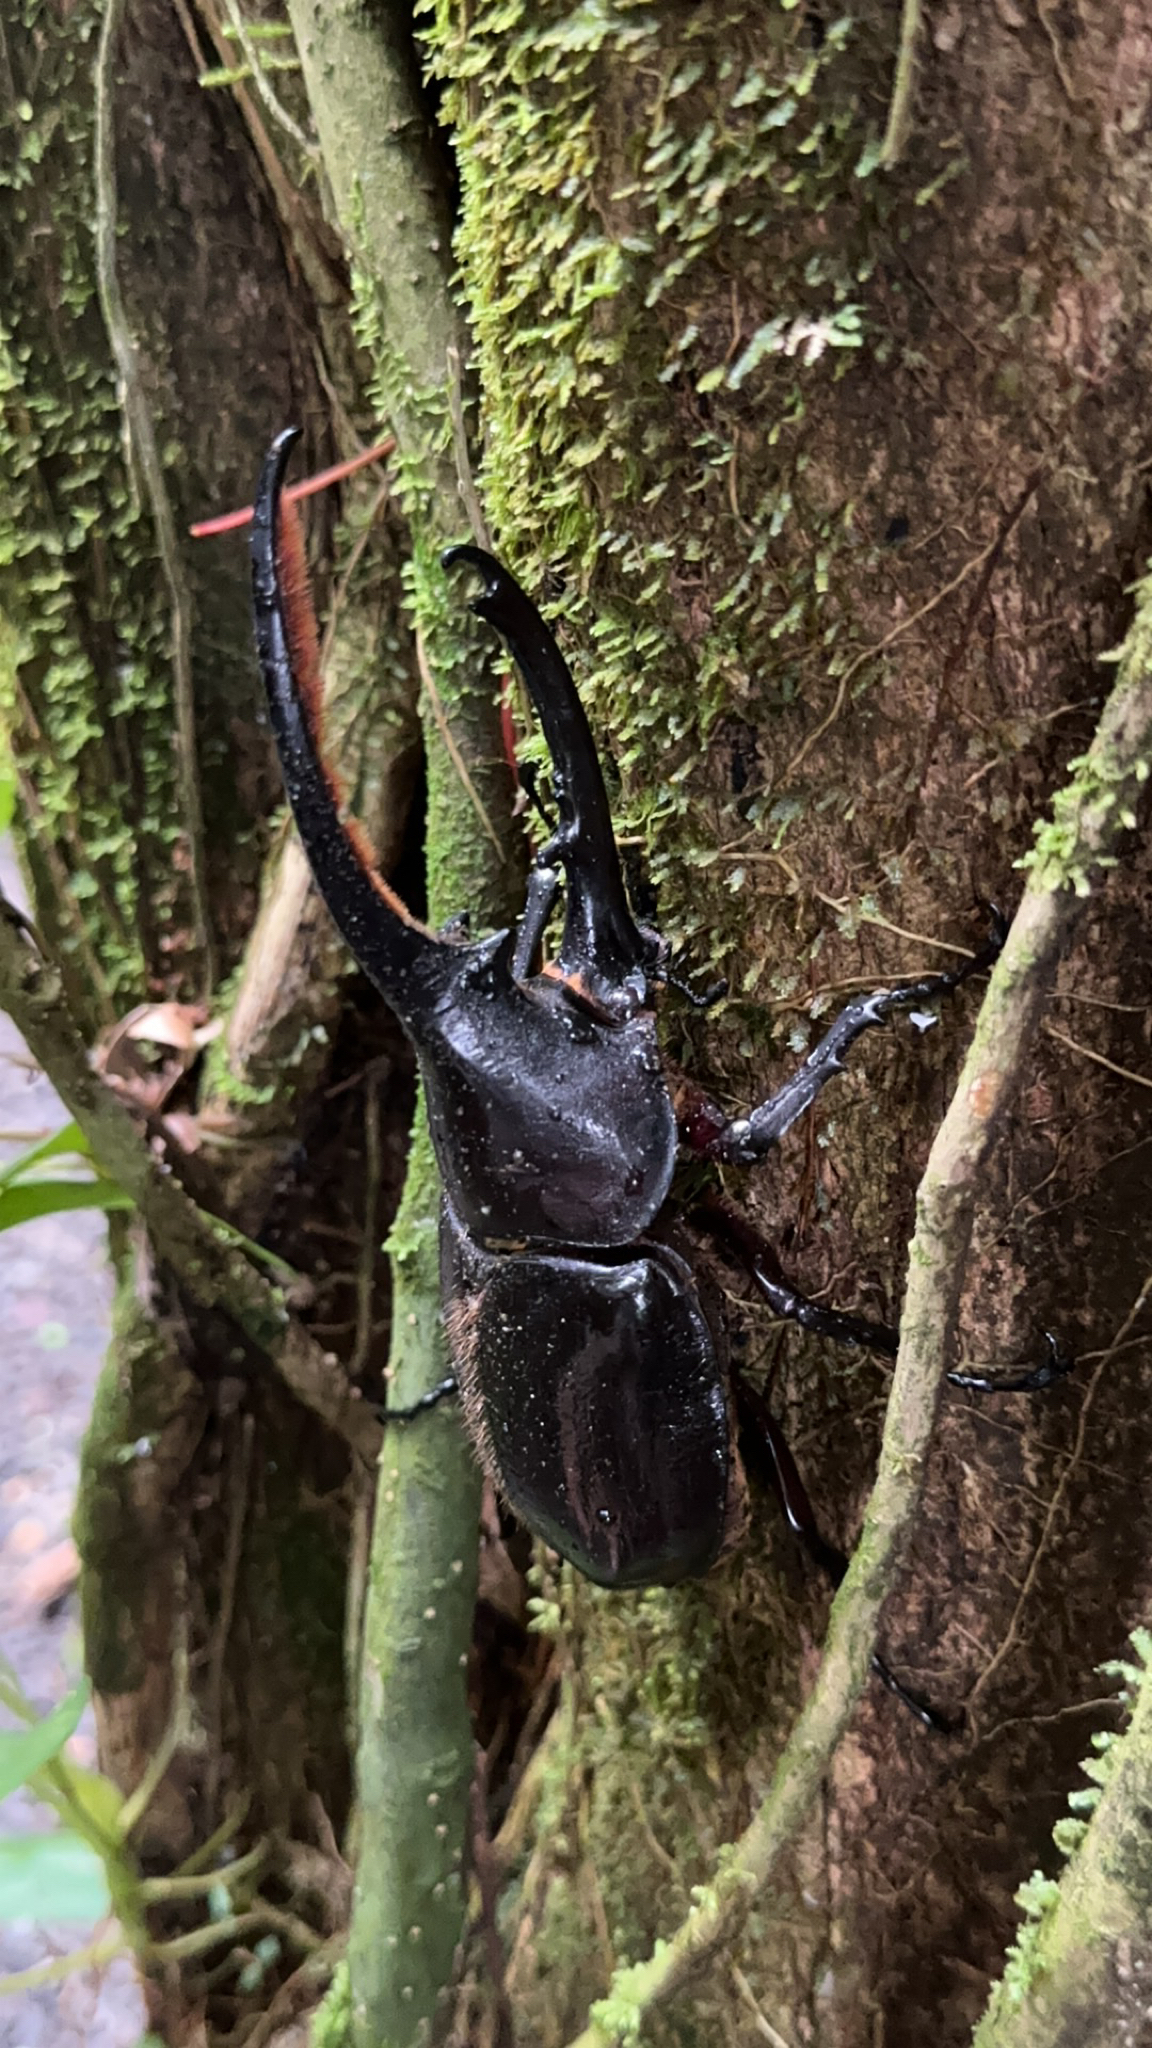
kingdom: Animalia
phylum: Arthropoda
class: Insecta
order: Coleoptera
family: Scarabaeidae
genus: Dynastes
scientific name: Dynastes
